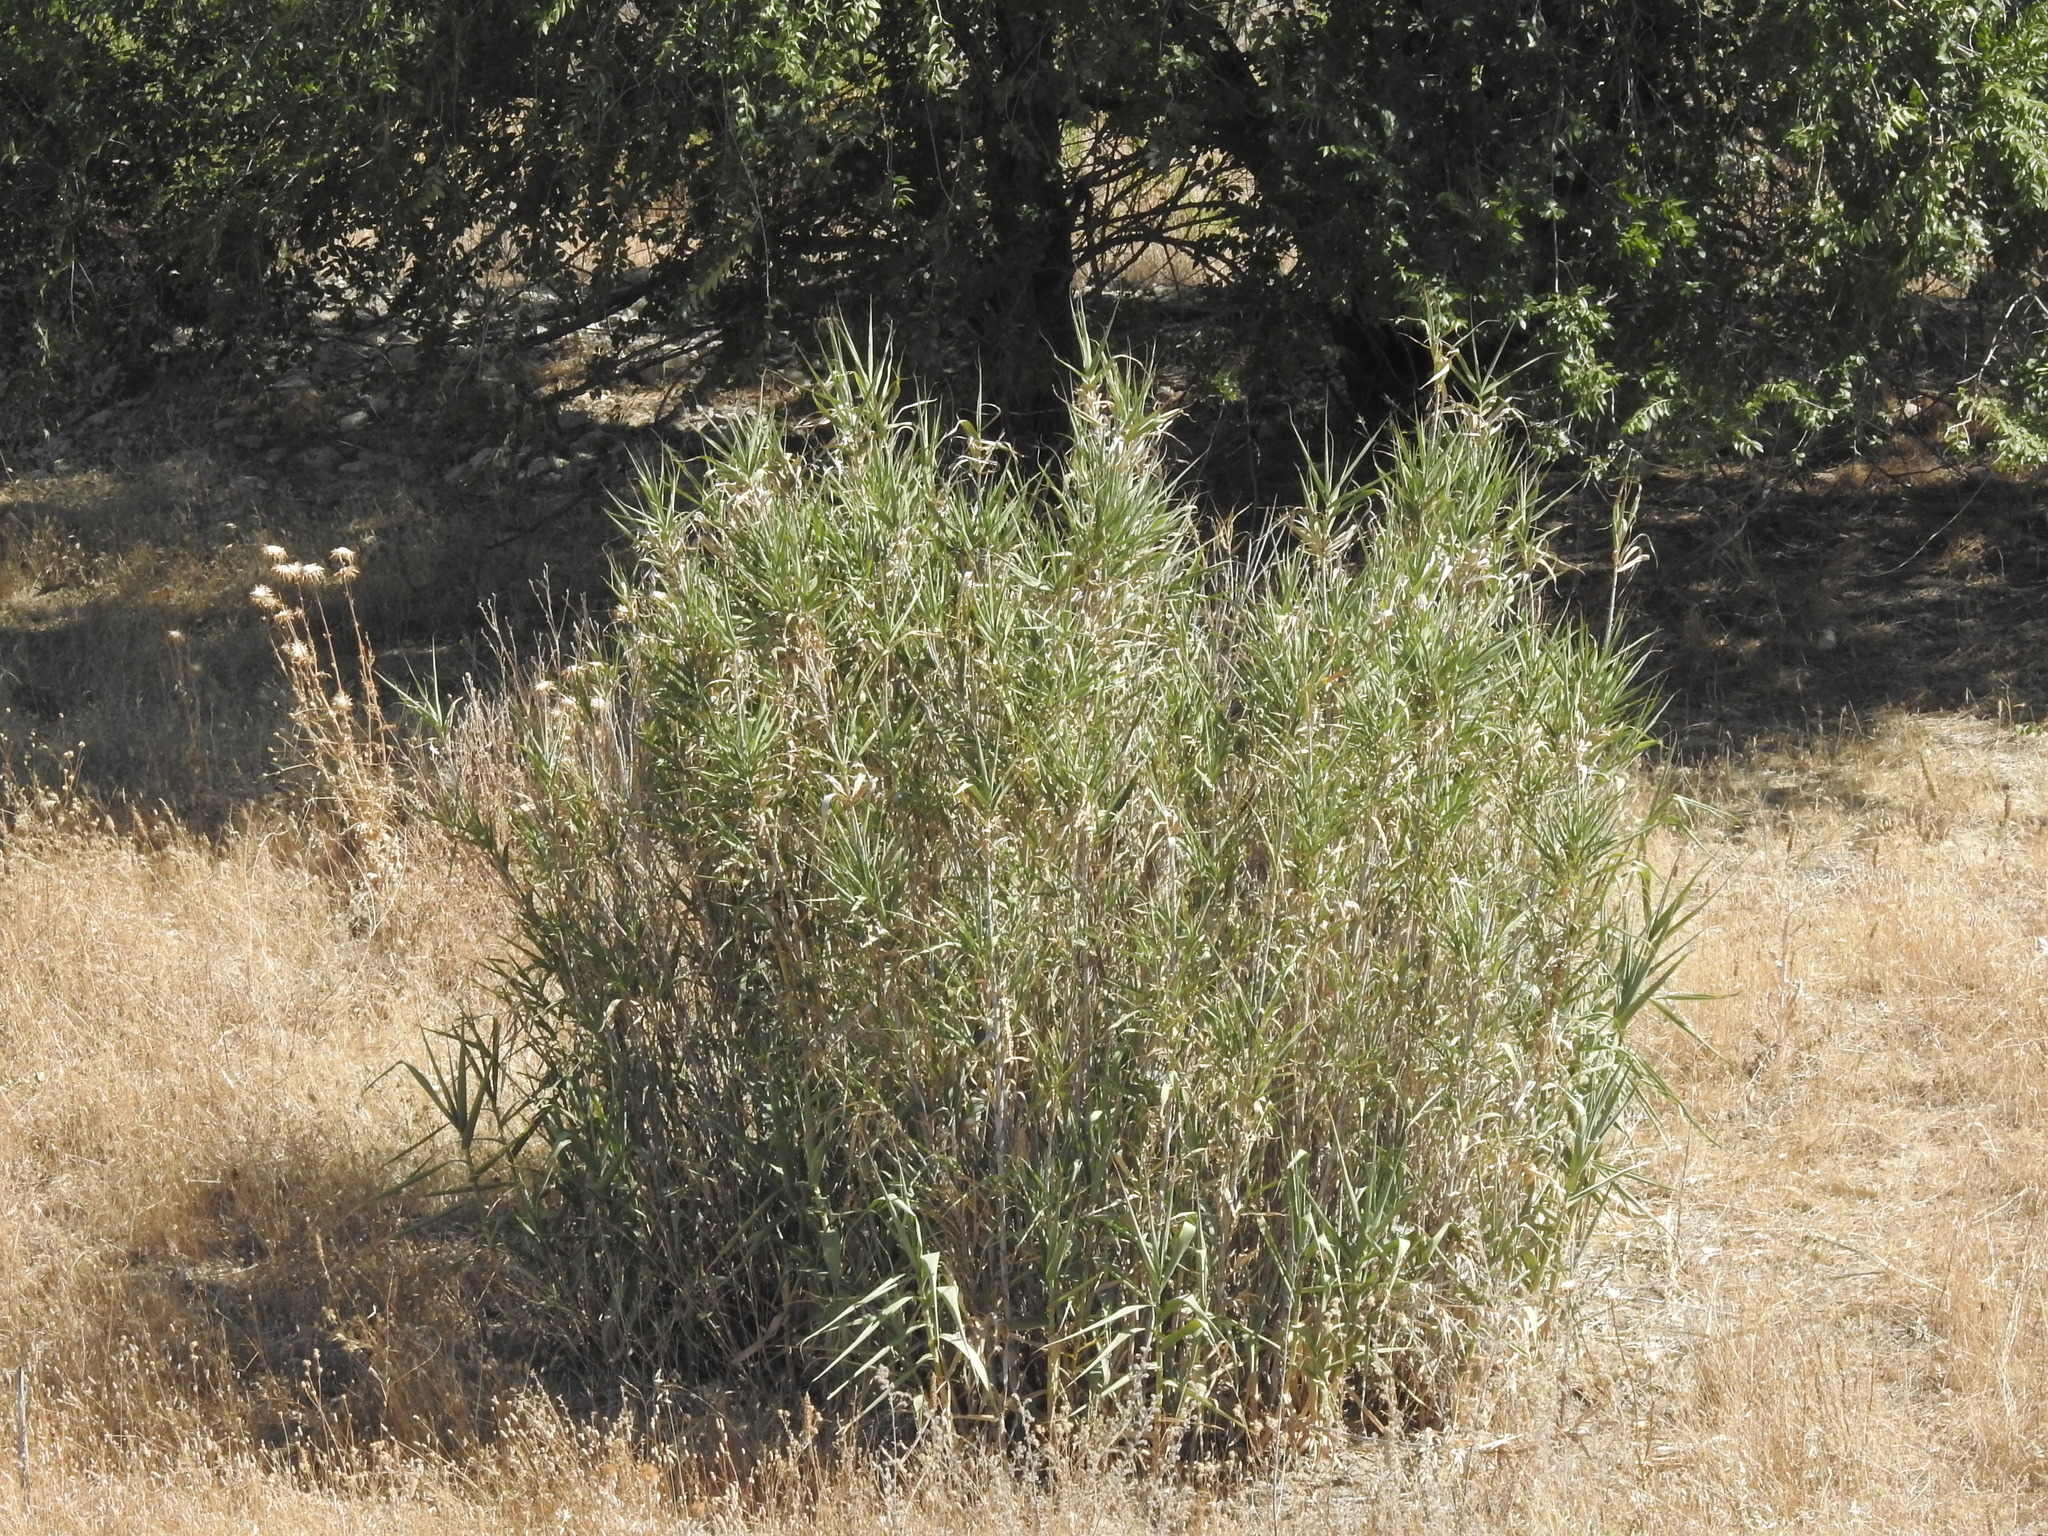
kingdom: Plantae
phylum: Tracheophyta
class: Liliopsida
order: Poales
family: Poaceae
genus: Arundo
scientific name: Arundo donax
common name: Giant reed
